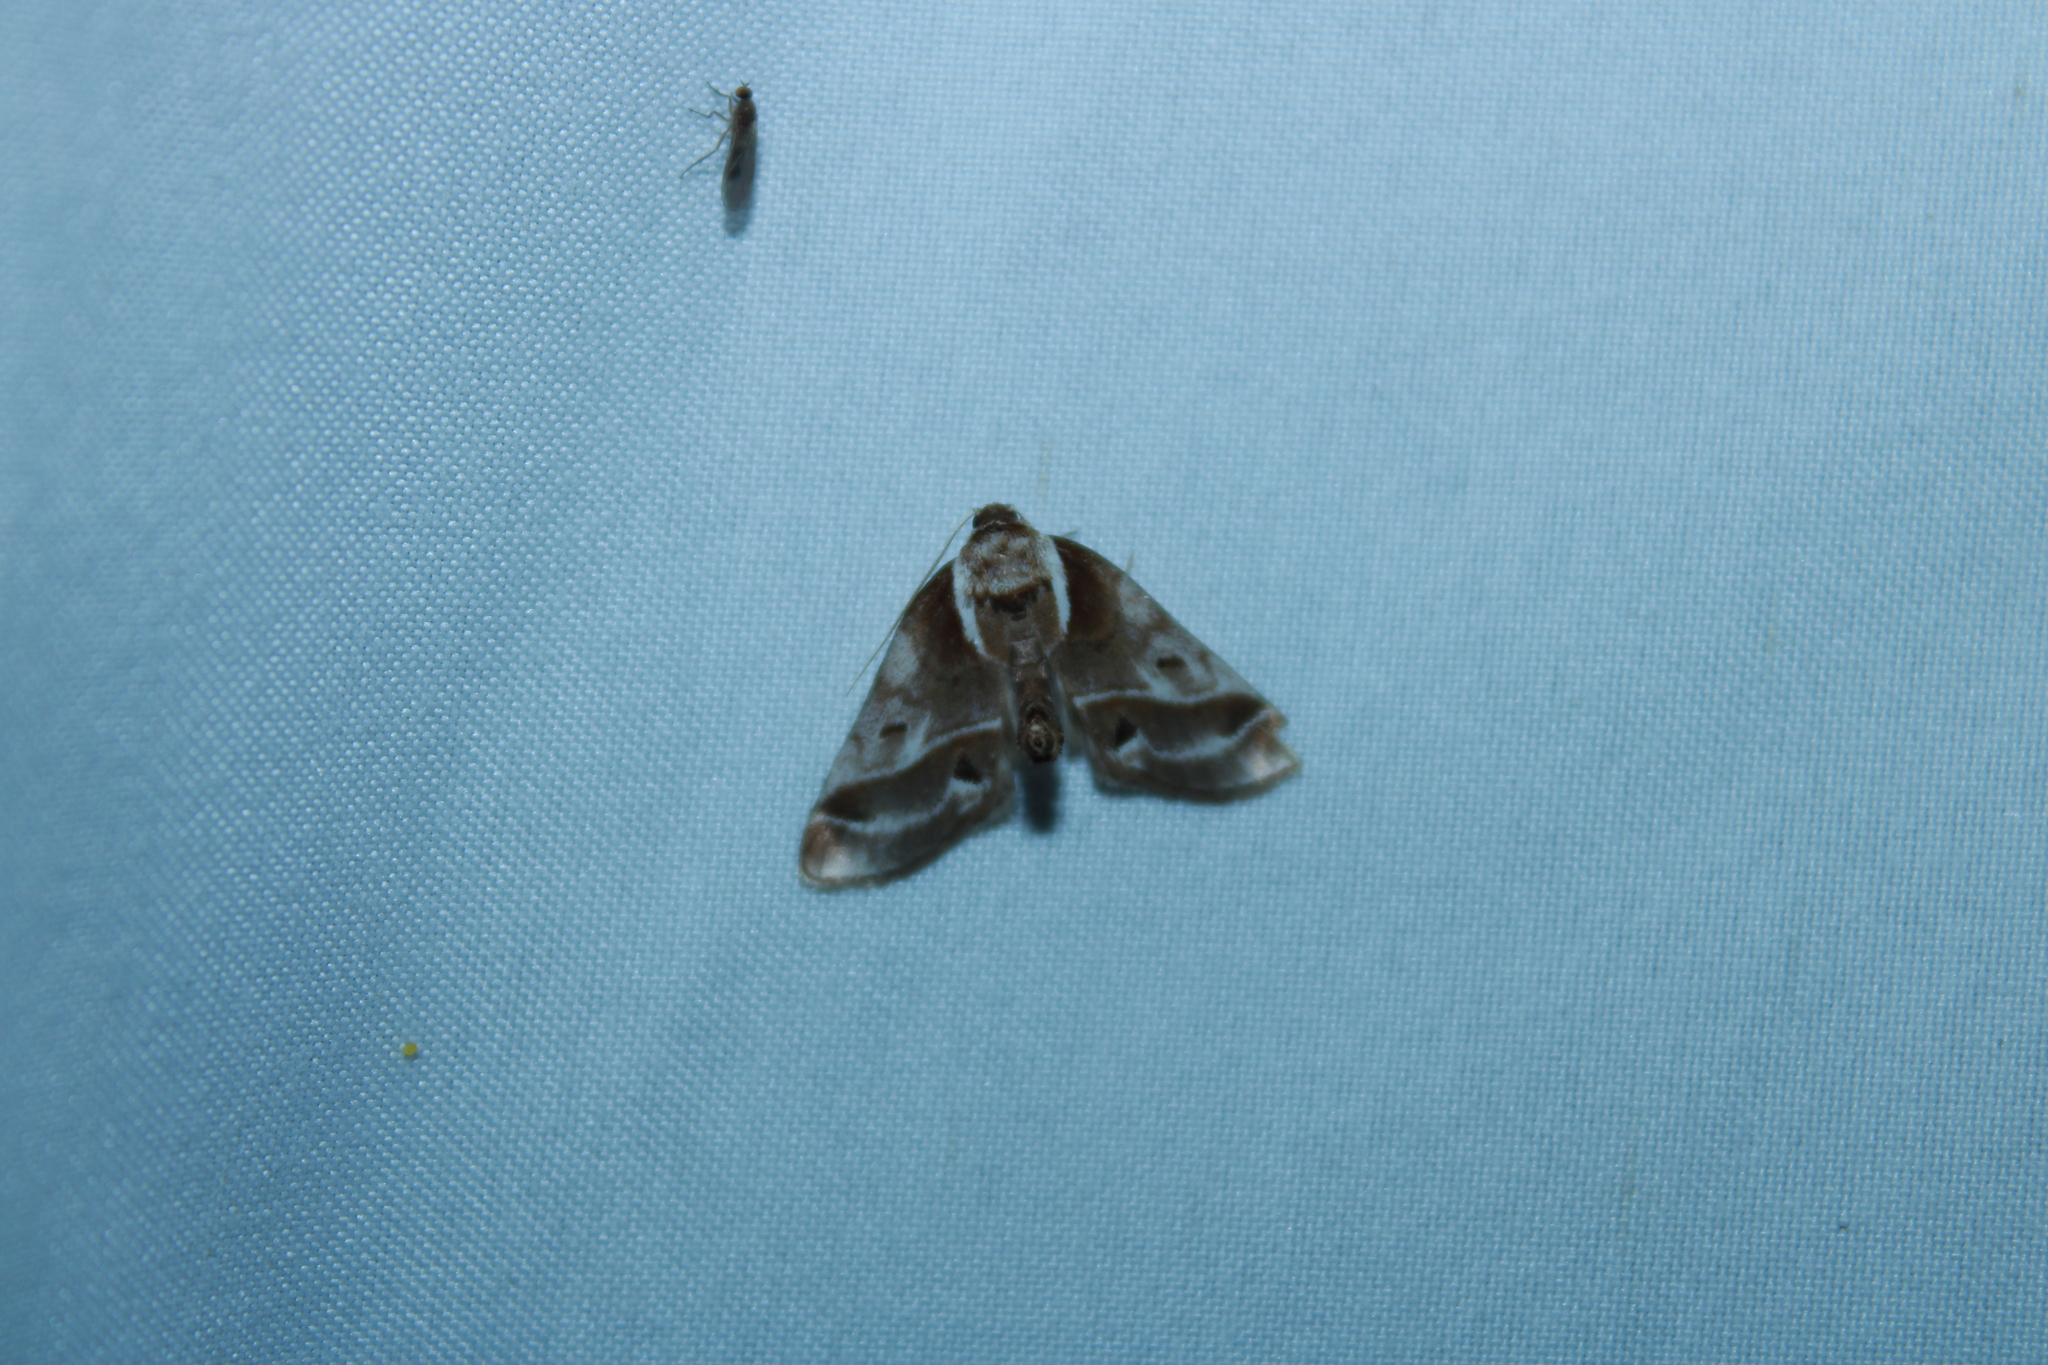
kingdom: Animalia
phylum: Arthropoda
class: Insecta
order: Lepidoptera
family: Nolidae
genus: Baileya
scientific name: Baileya doubledayi
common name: Doubleday's baileya moth
